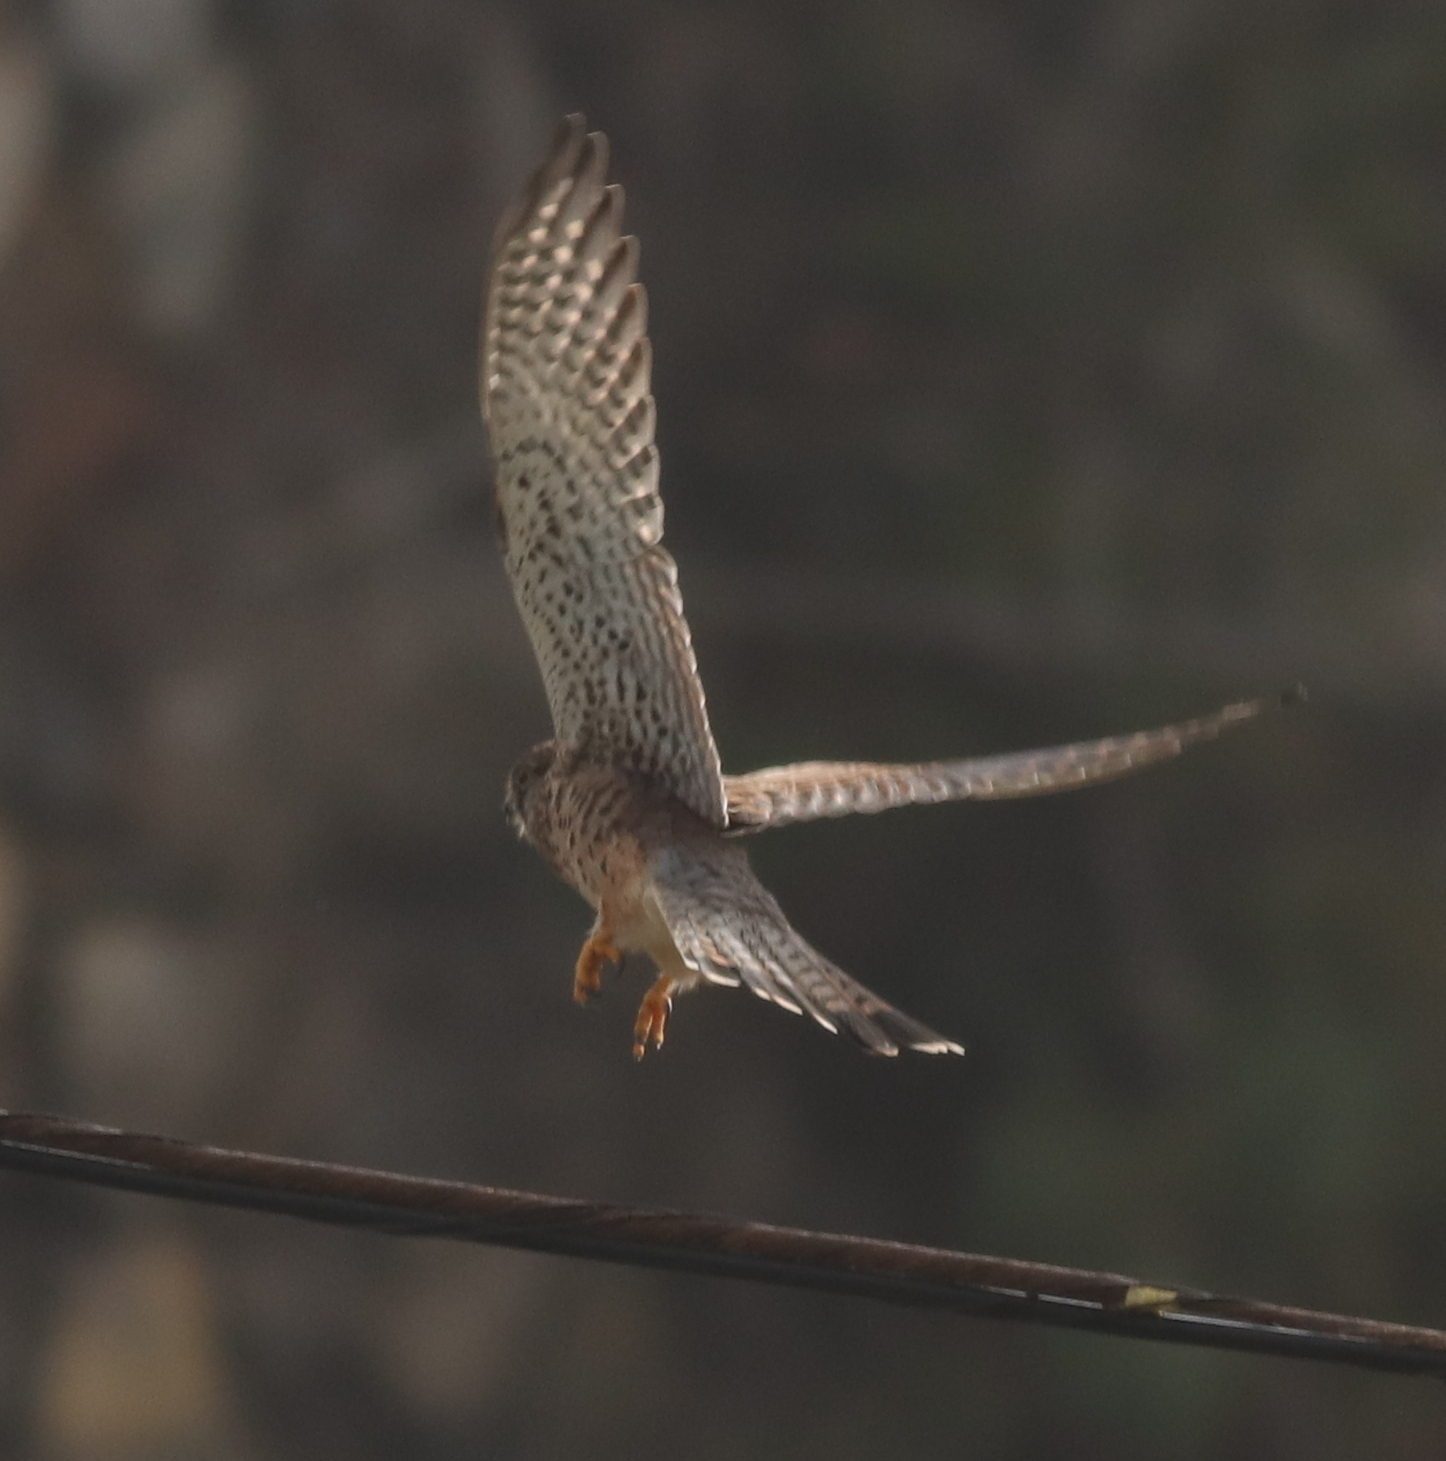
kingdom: Animalia
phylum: Chordata
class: Aves
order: Falconiformes
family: Falconidae
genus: Falco
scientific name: Falco tinnunculus
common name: Common kestrel
